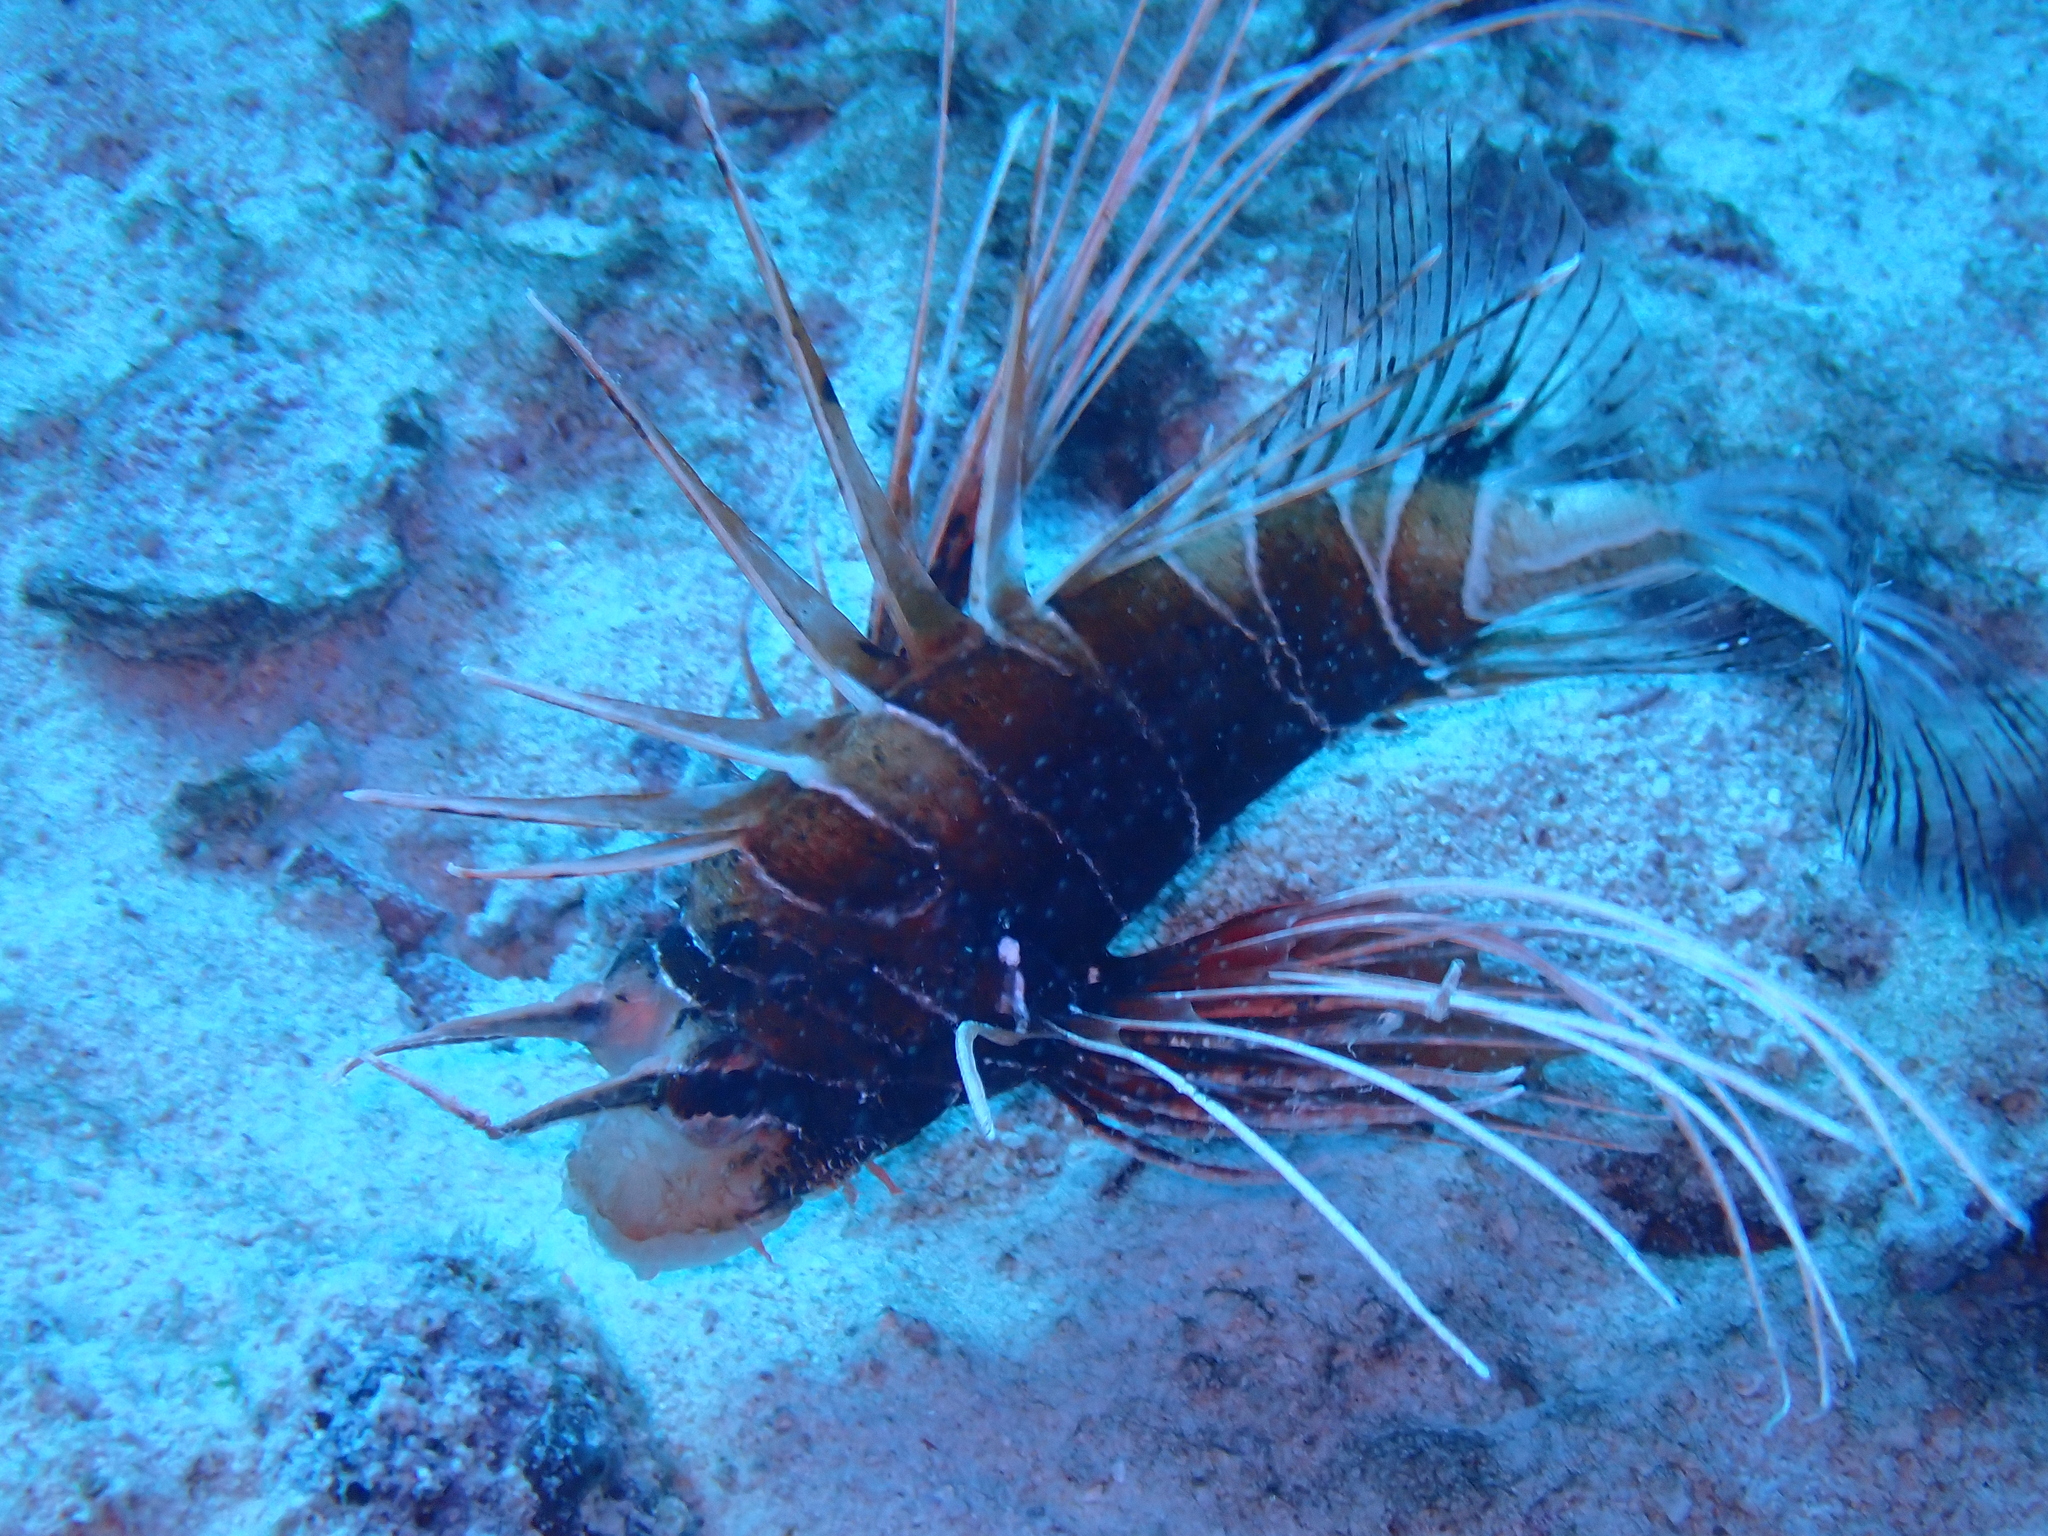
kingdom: Animalia
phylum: Chordata
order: Scorpaeniformes
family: Scorpaenidae
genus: Pterois
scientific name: Pterois cincta
